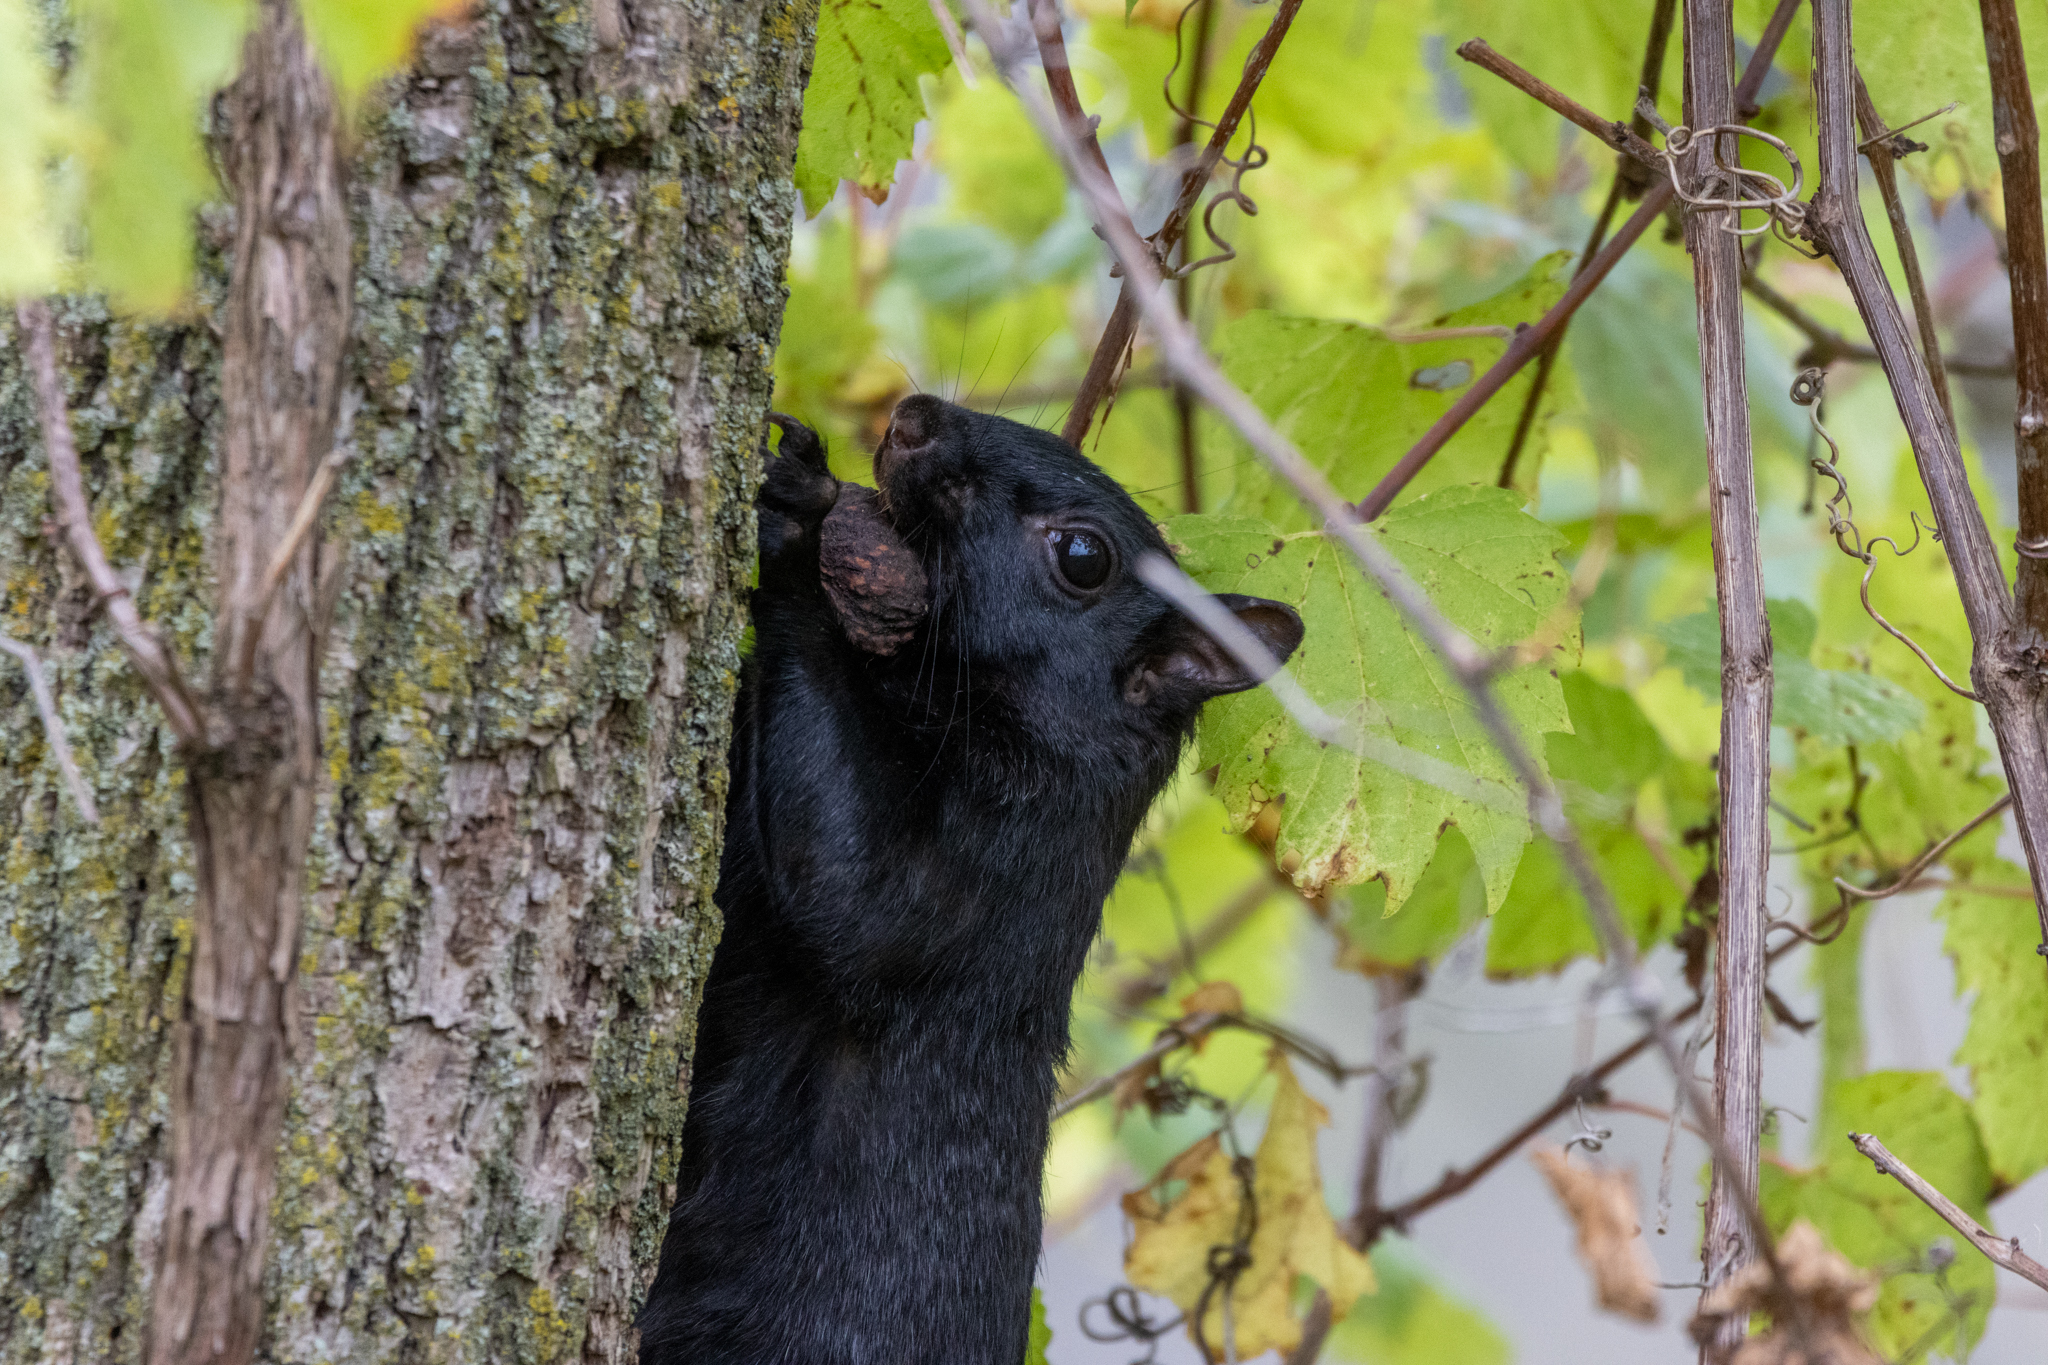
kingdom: Animalia
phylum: Chordata
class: Mammalia
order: Rodentia
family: Sciuridae
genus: Sciurus
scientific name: Sciurus carolinensis
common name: Eastern gray squirrel
